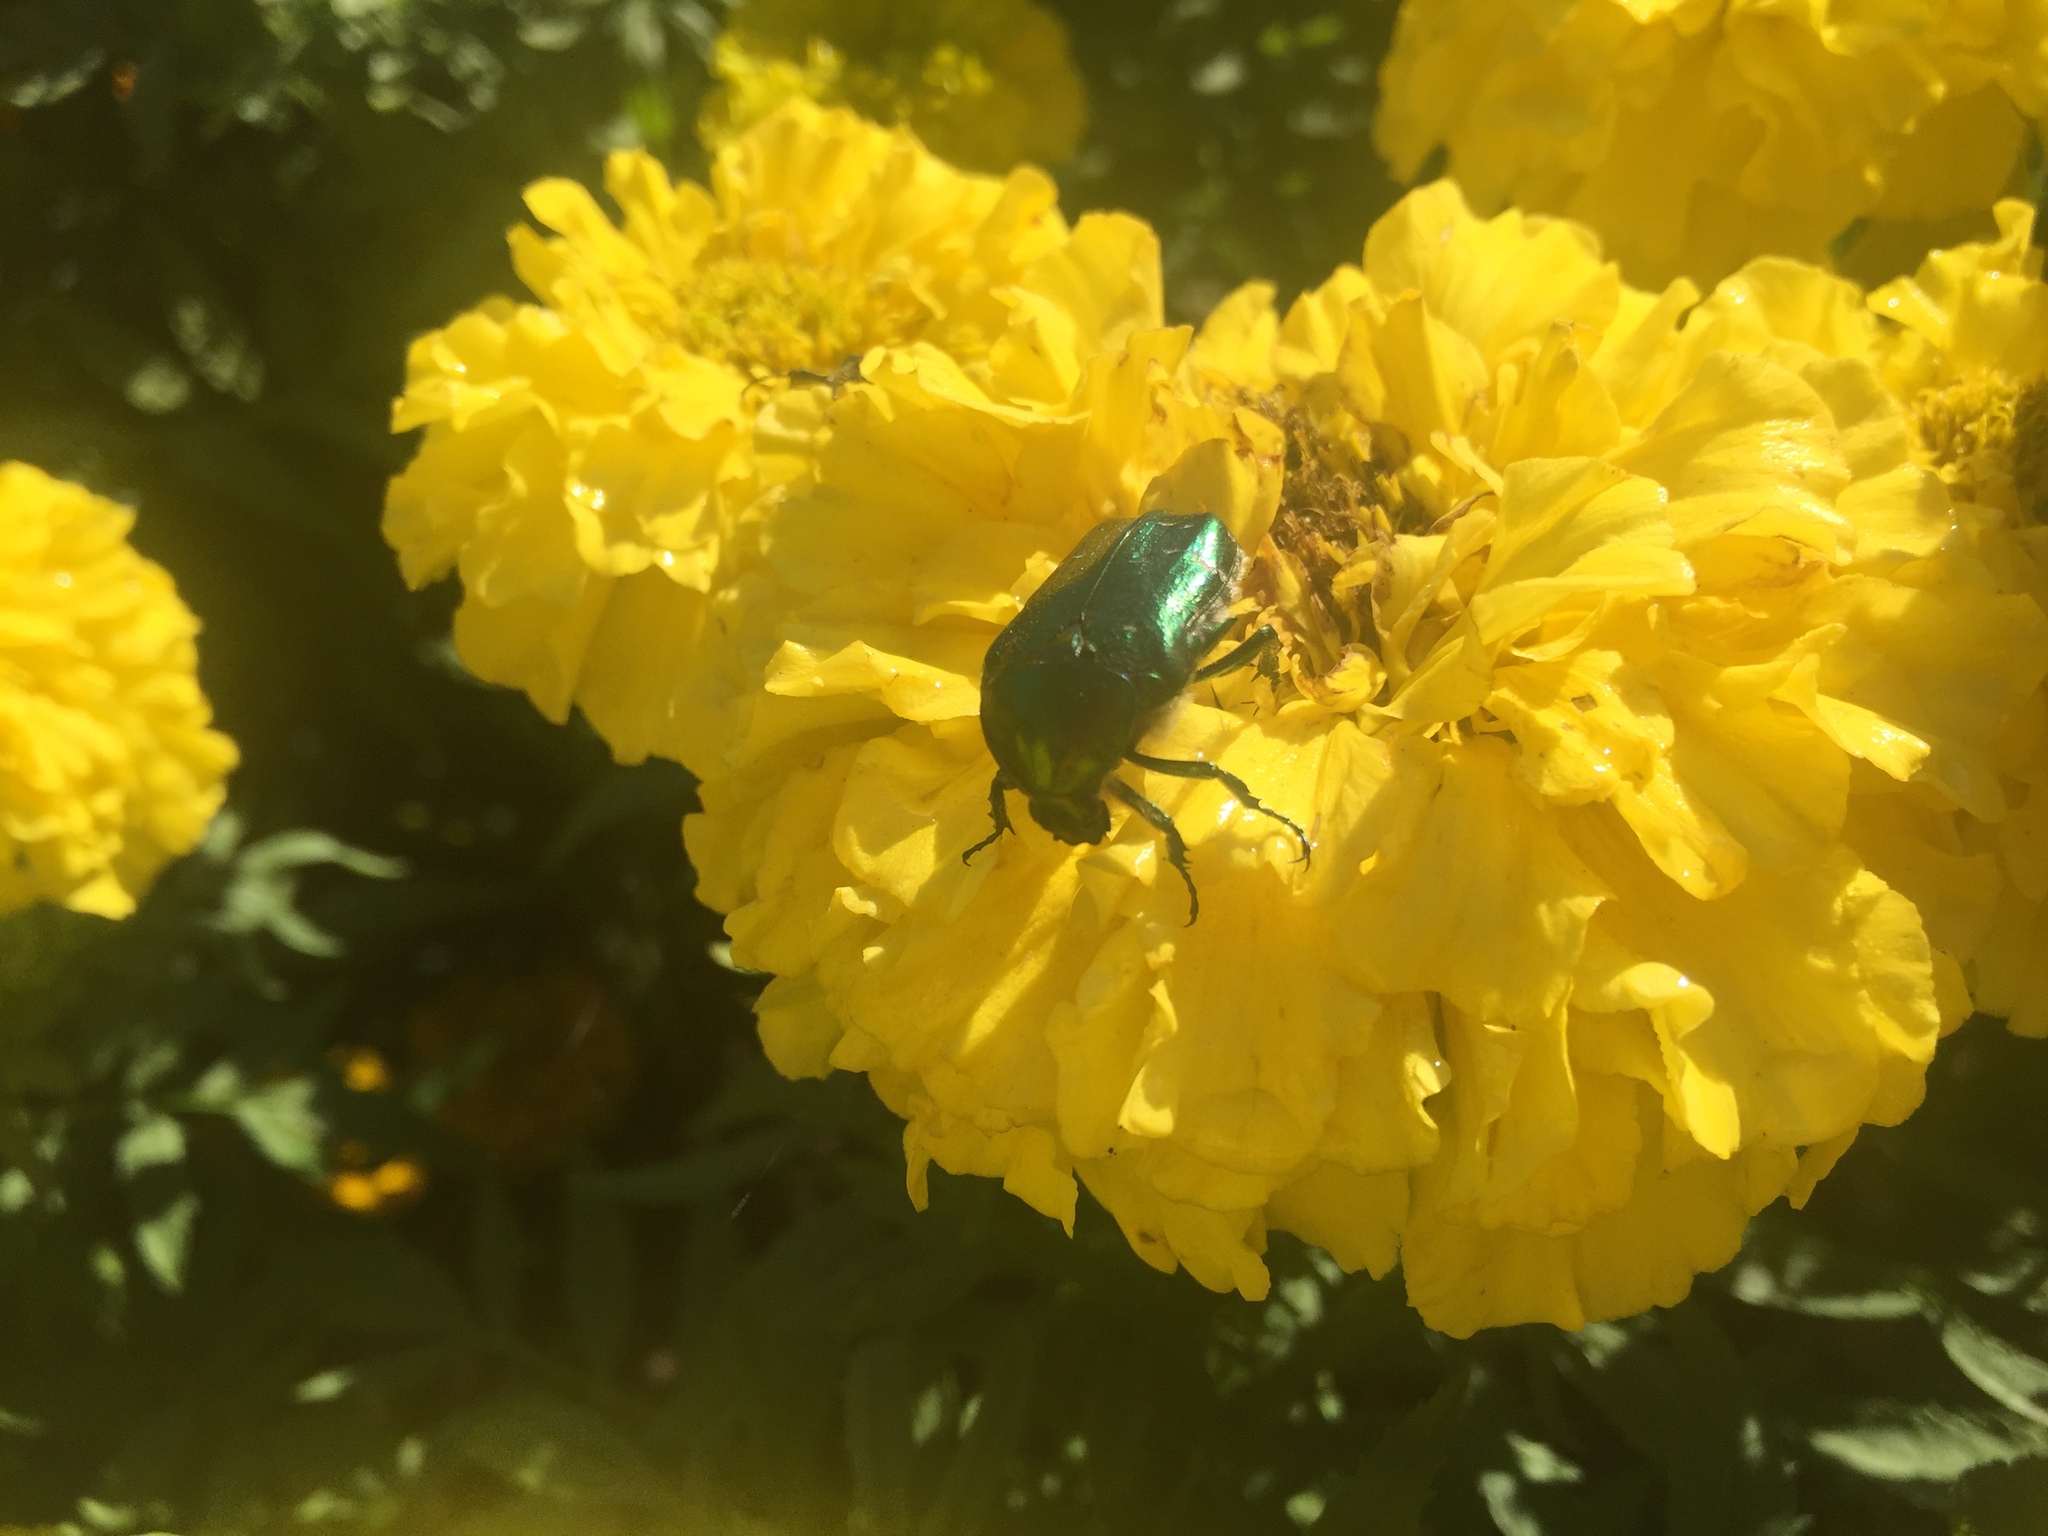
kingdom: Animalia
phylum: Arthropoda
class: Insecta
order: Coleoptera
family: Scarabaeidae
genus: Cetonia
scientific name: Cetonia aurata
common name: Rose chafer
